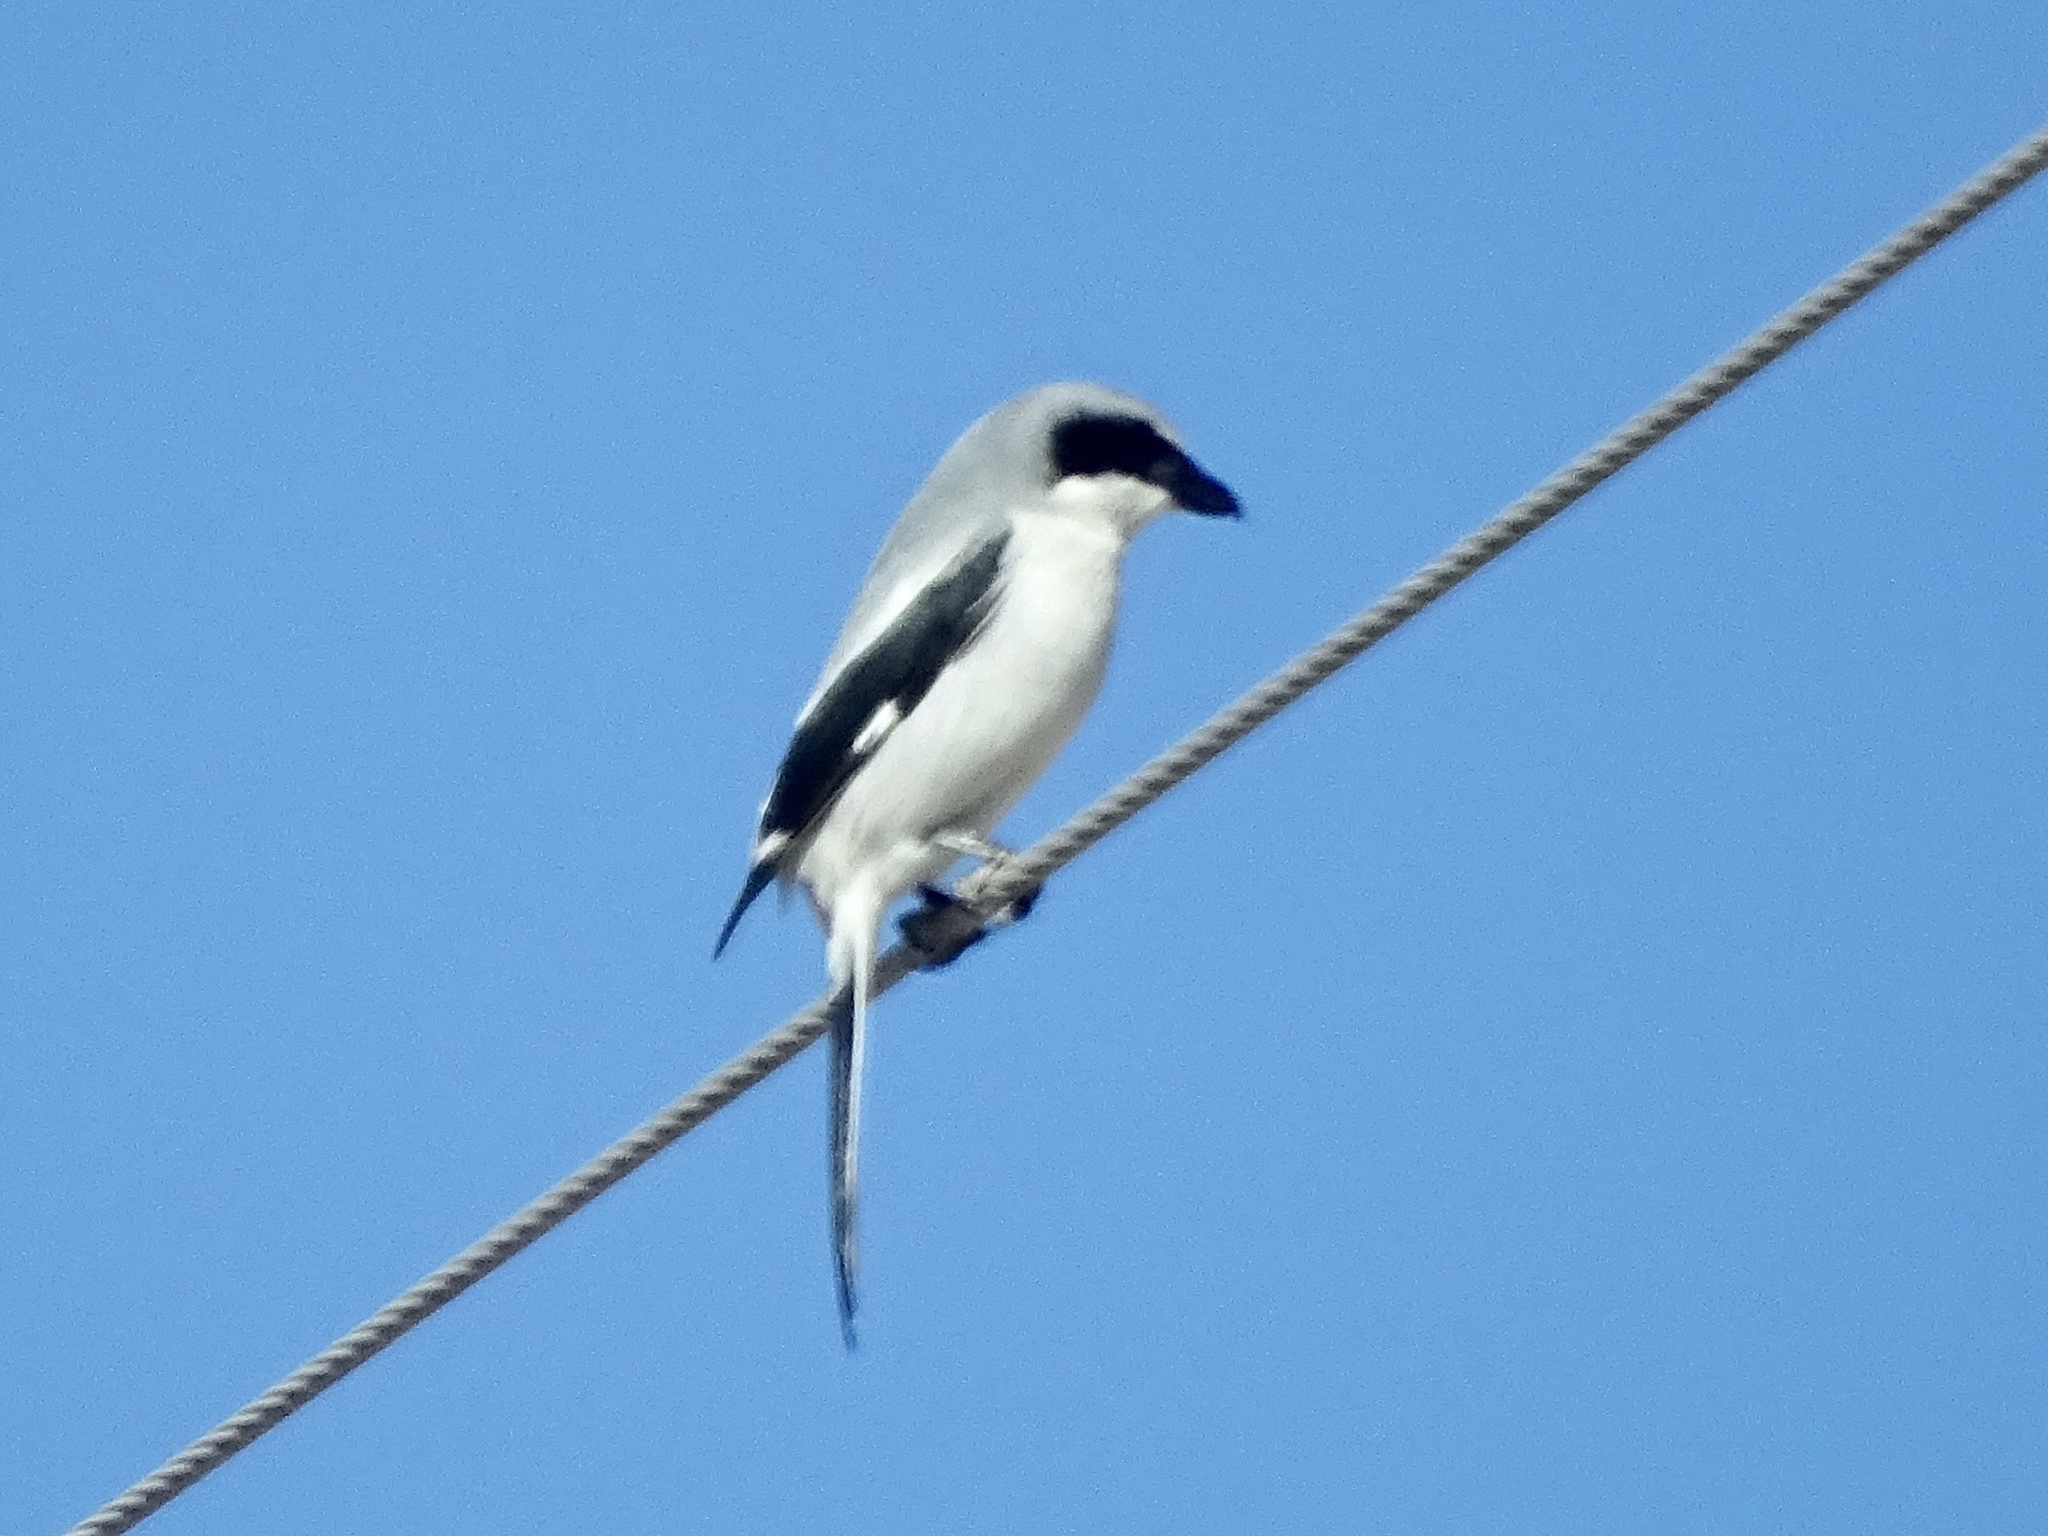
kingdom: Animalia
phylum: Chordata
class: Aves
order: Passeriformes
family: Laniidae
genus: Lanius
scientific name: Lanius ludovicianus
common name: Loggerhead shrike
